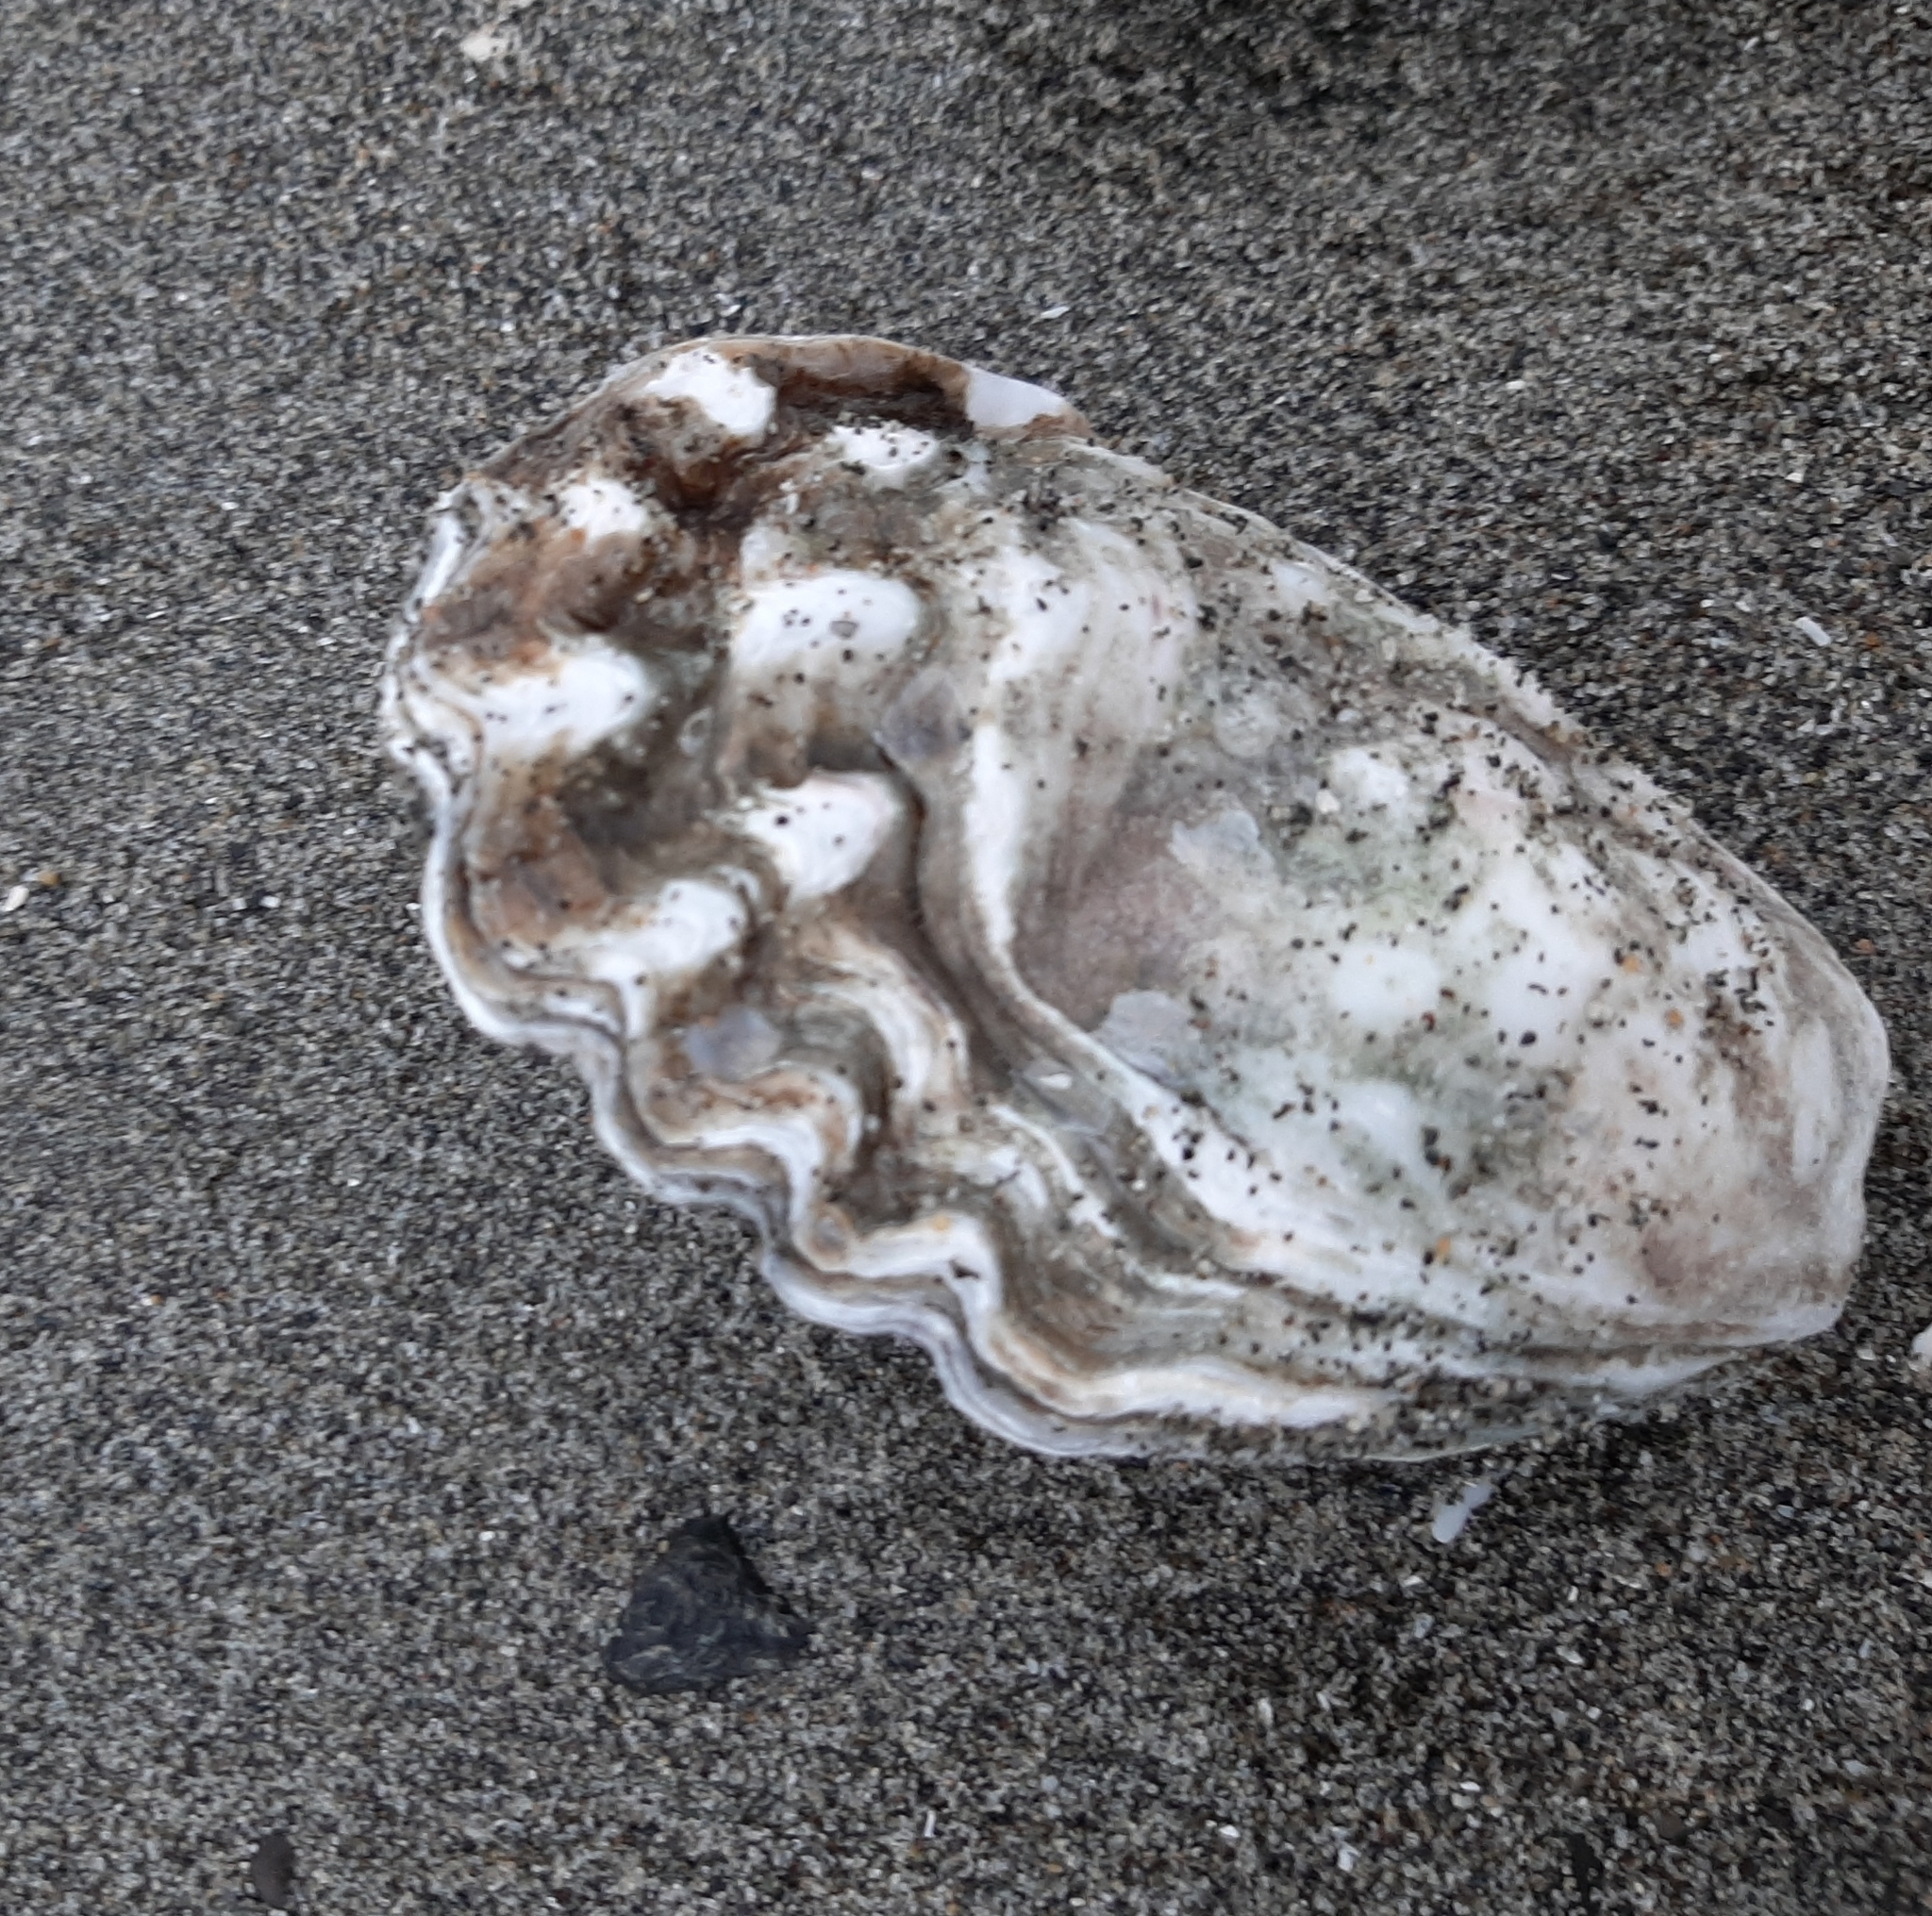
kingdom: Animalia
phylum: Mollusca
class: Bivalvia
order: Ostreida
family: Ostreidae
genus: Magallana
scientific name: Magallana gigas
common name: Pacific oyster
